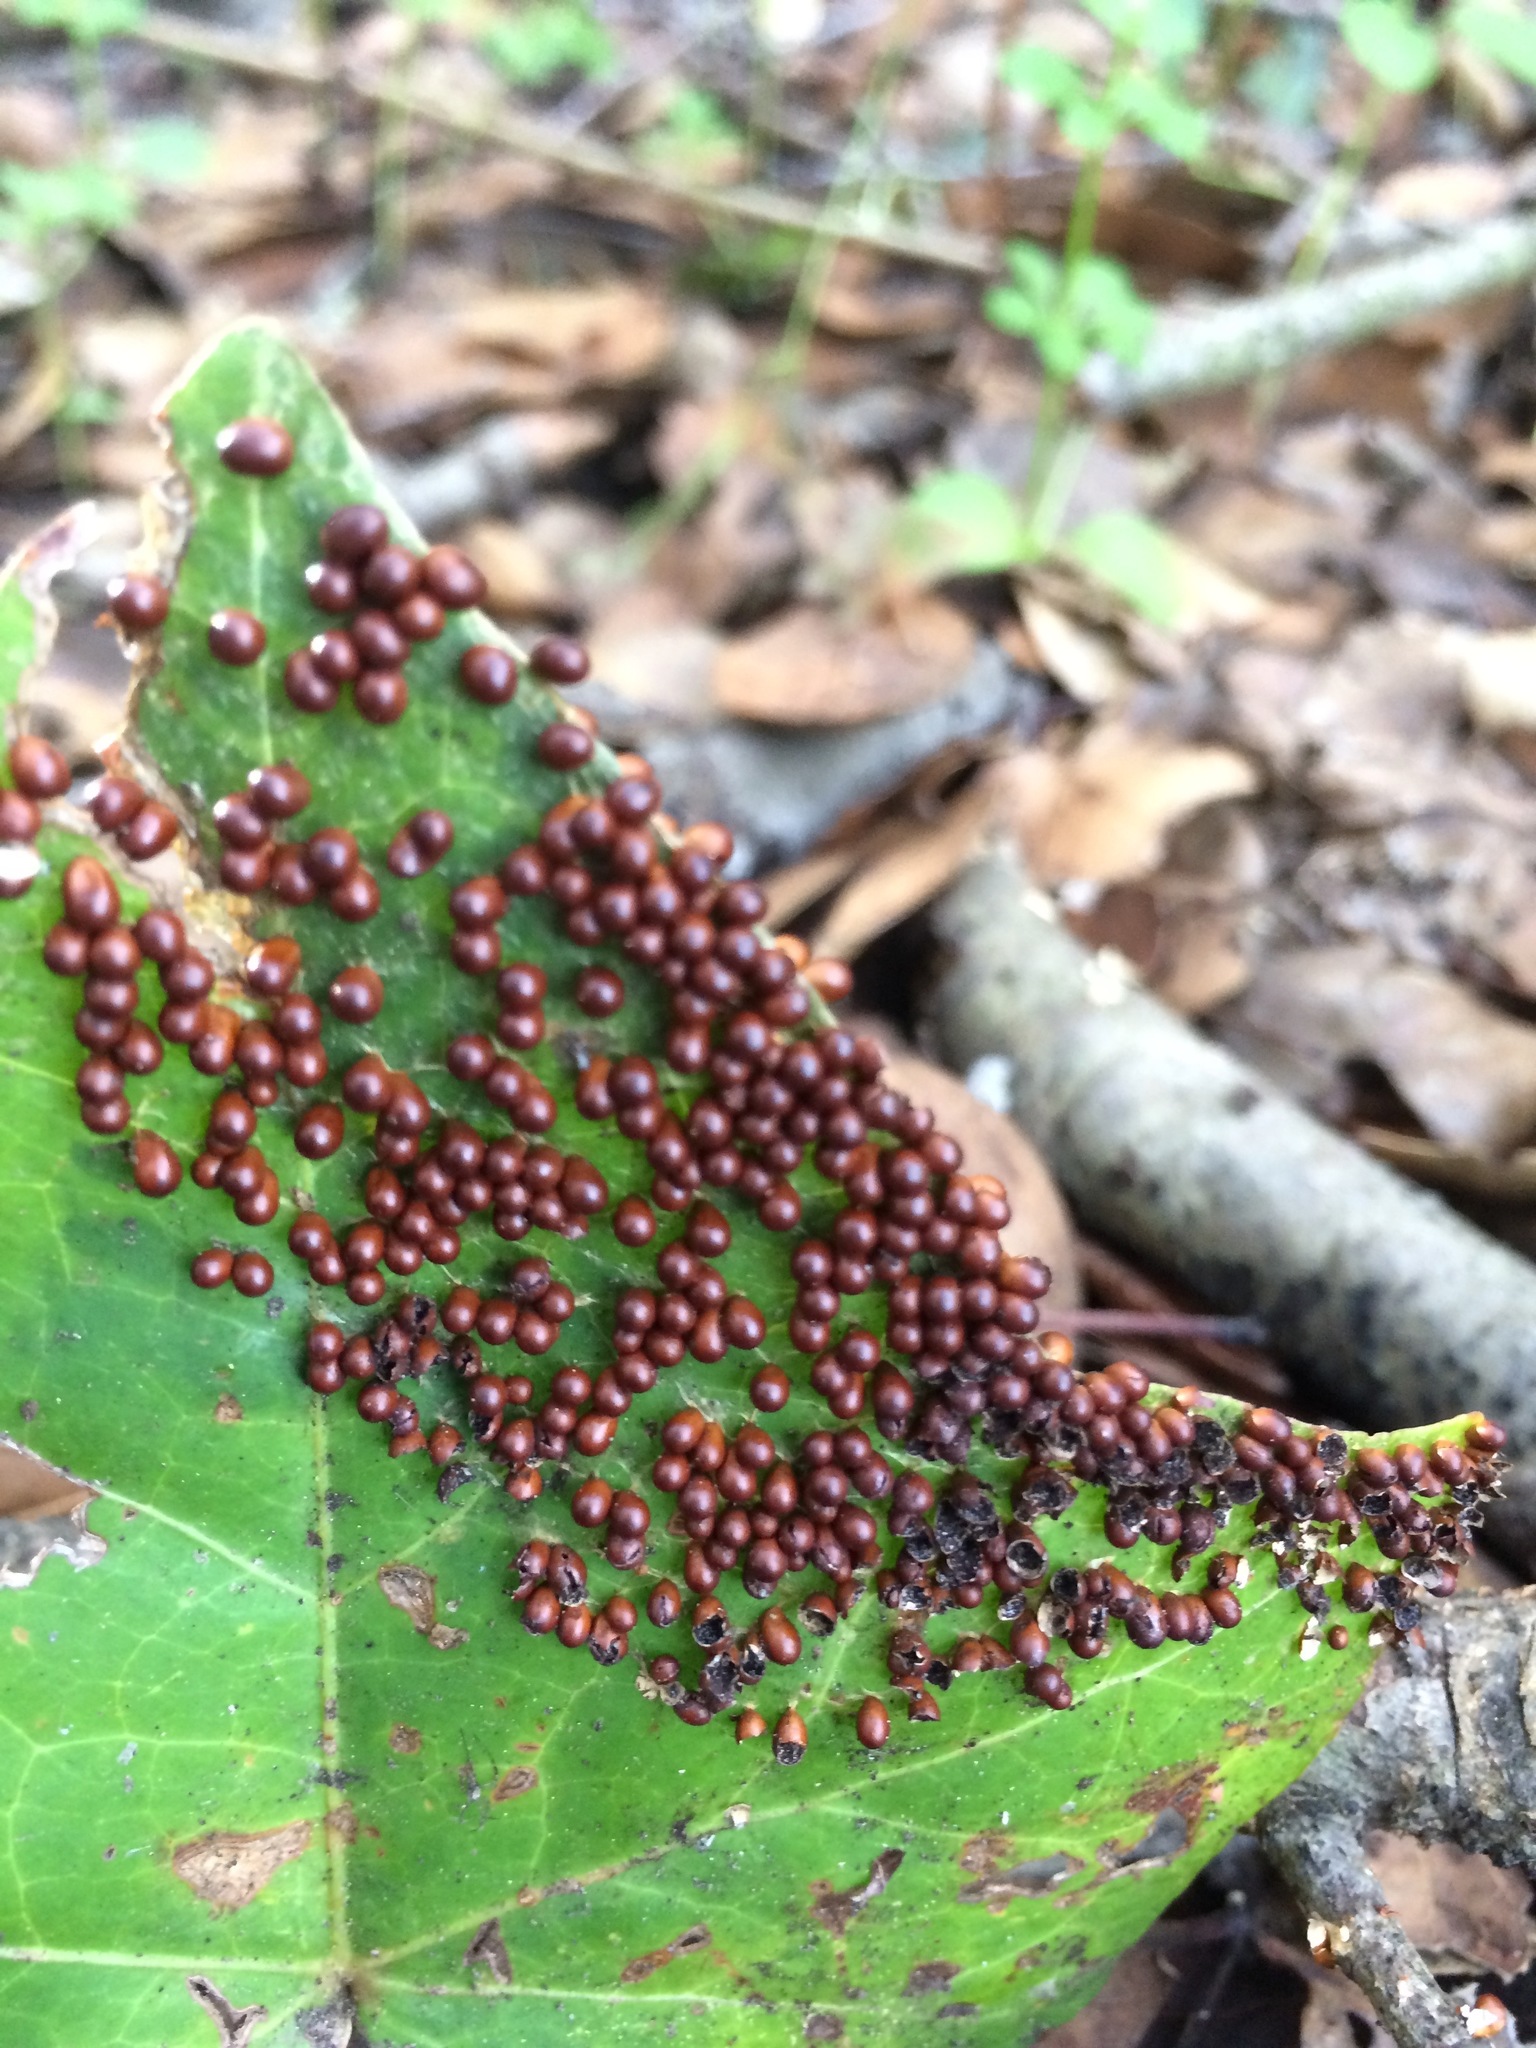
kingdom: Protozoa
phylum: Mycetozoa
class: Myxomycetes
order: Physarales
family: Physaraceae
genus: Leocarpus
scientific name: Leocarpus fragilis
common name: Insect-egg slime
